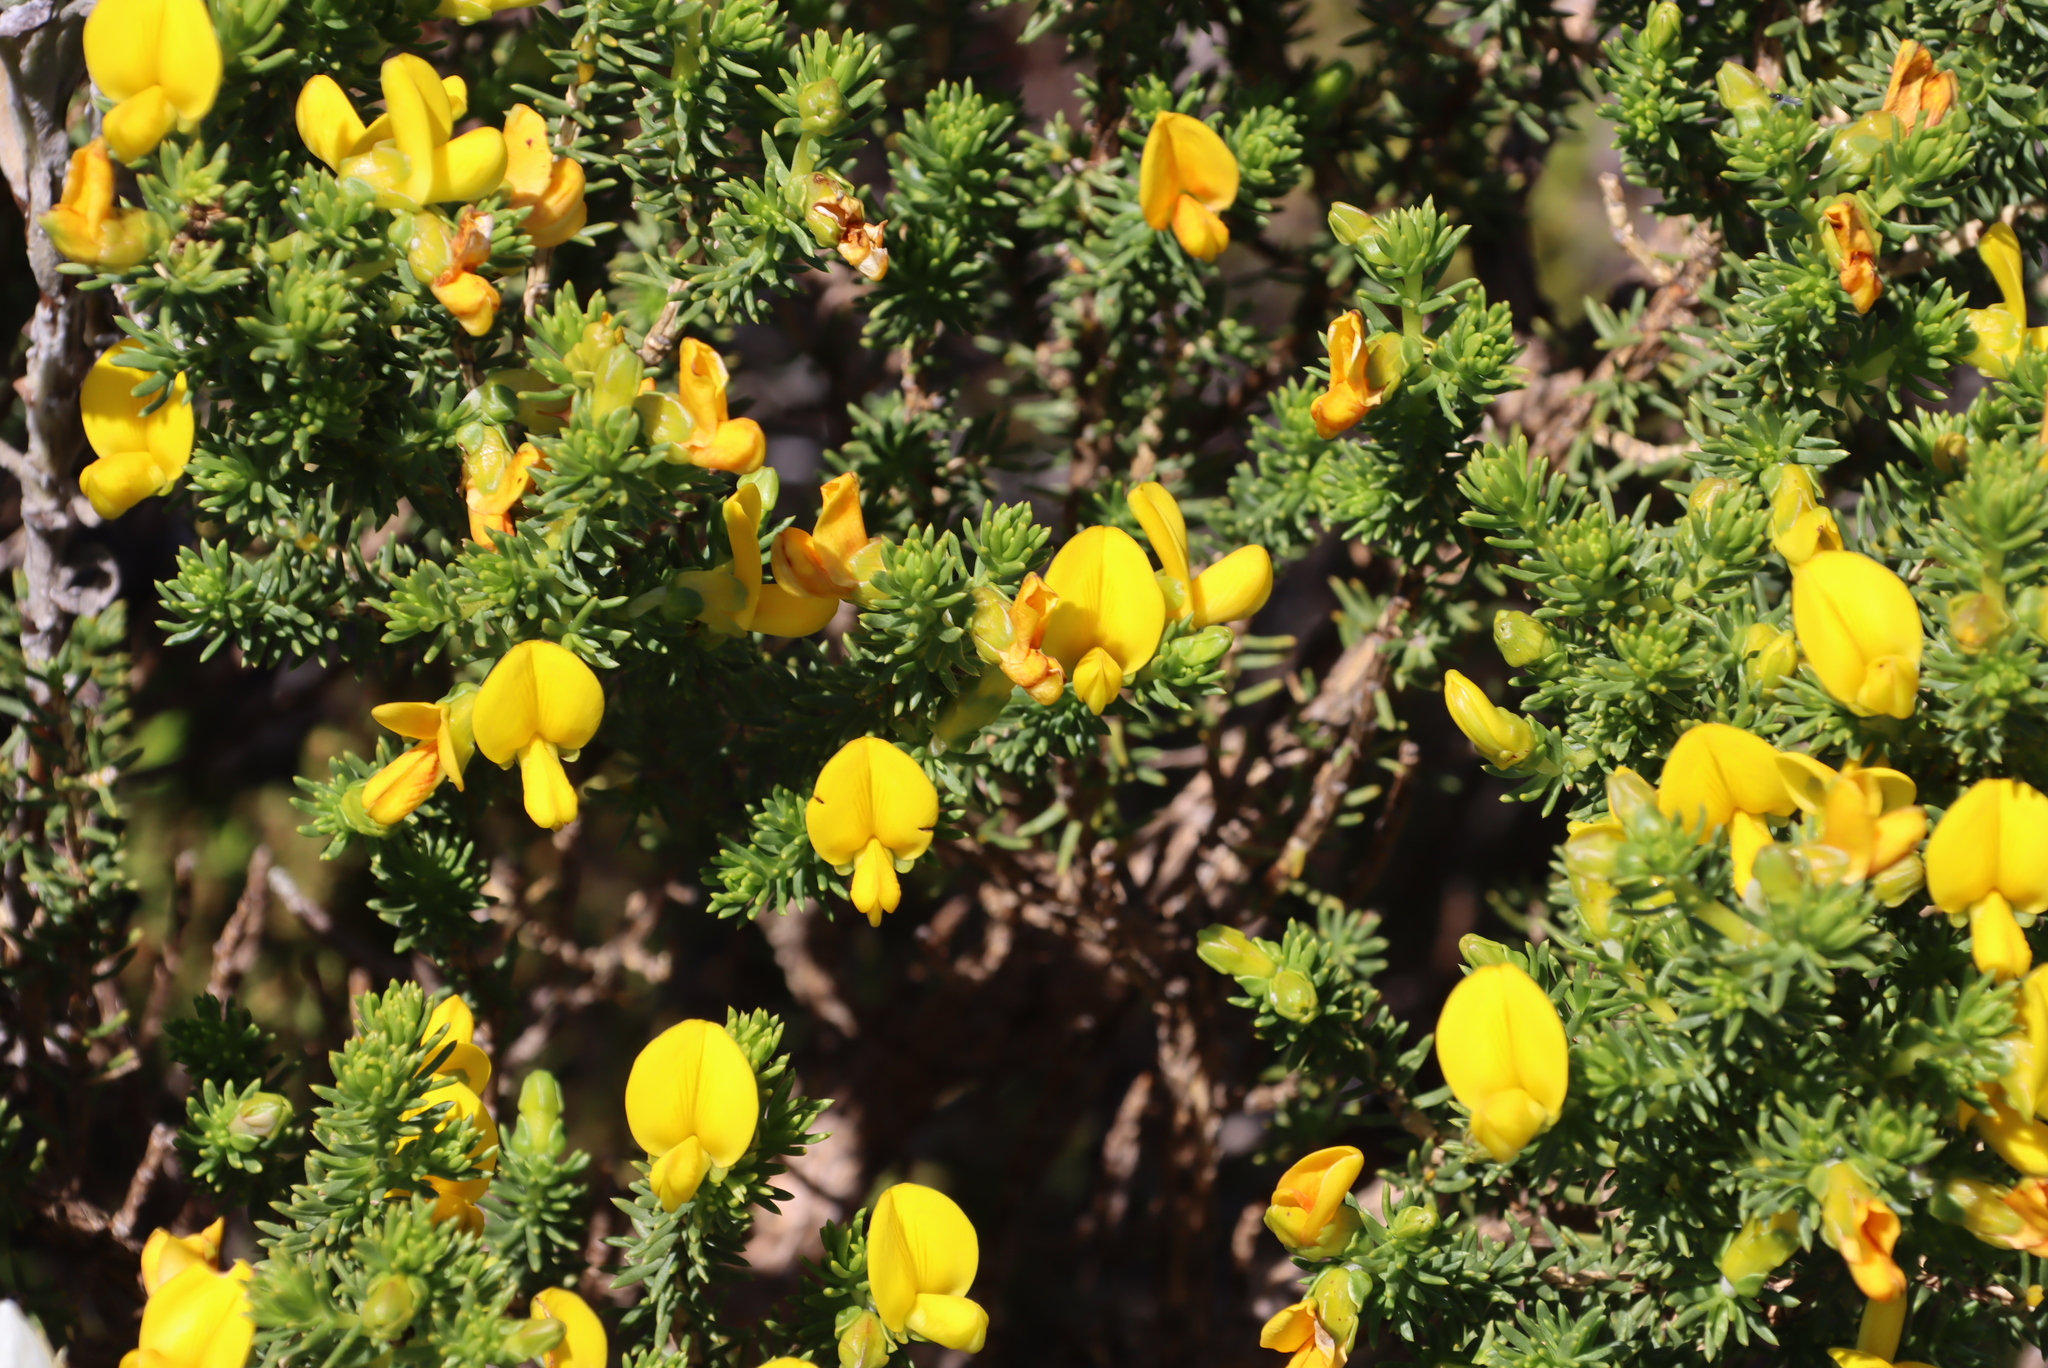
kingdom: Plantae
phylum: Tracheophyta
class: Magnoliopsida
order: Fabales
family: Fabaceae
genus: Aspalathus
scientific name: Aspalathus capensis
